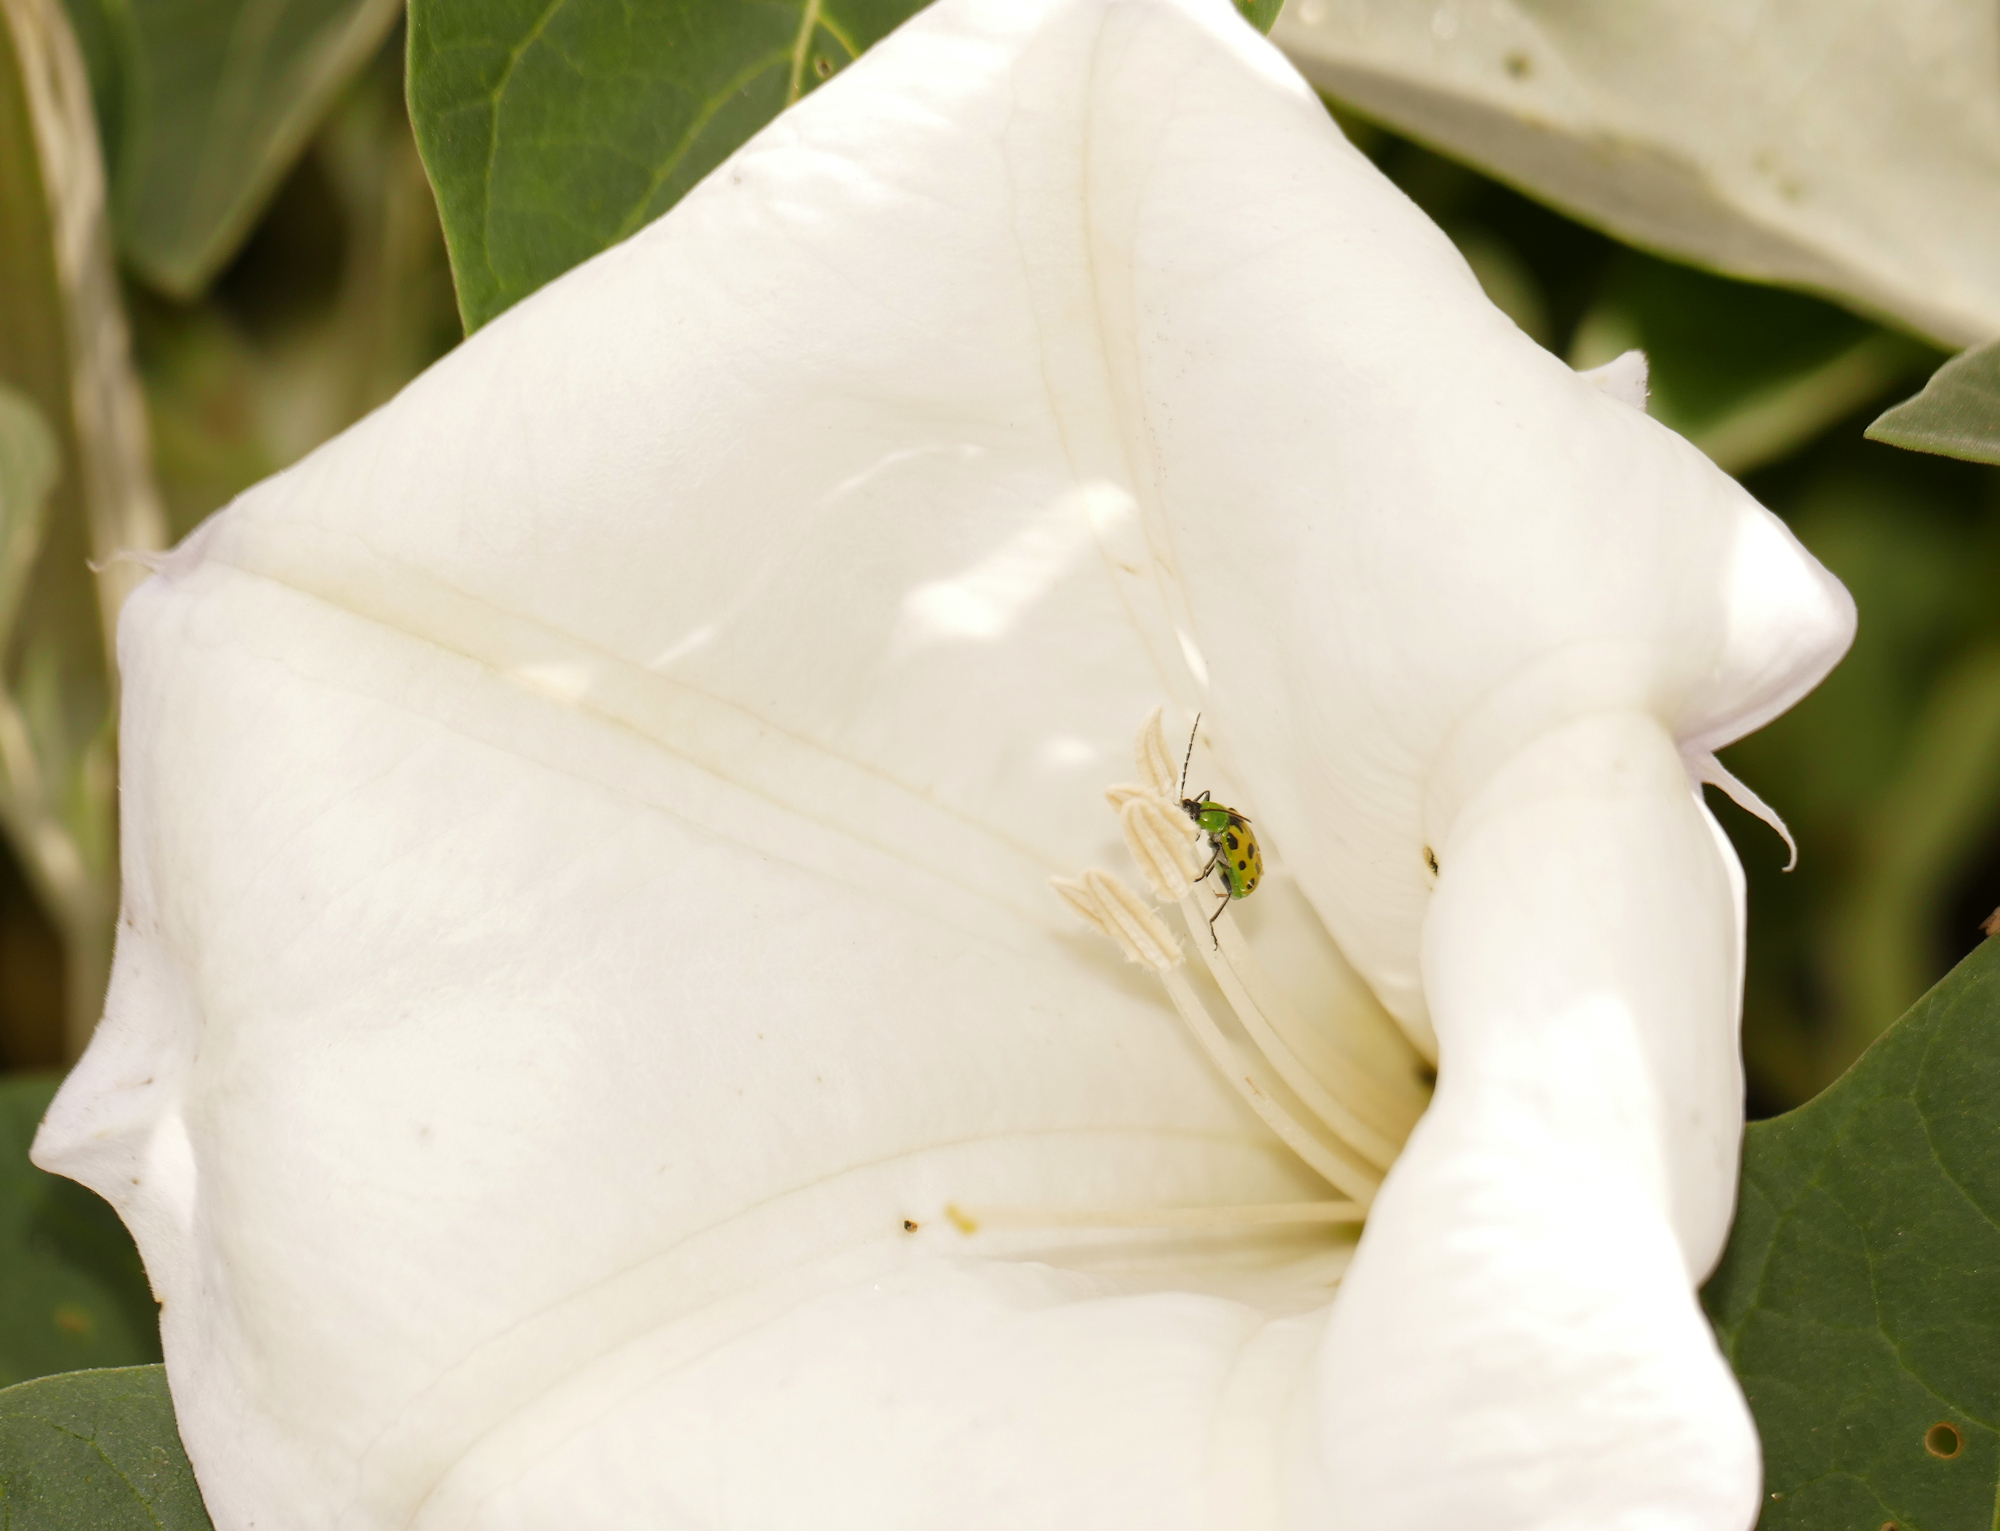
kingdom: Animalia
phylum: Arthropoda
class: Insecta
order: Coleoptera
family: Chrysomelidae
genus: Diabrotica
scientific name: Diabrotica undecimpunctata
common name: Spotted cucumber beetle
